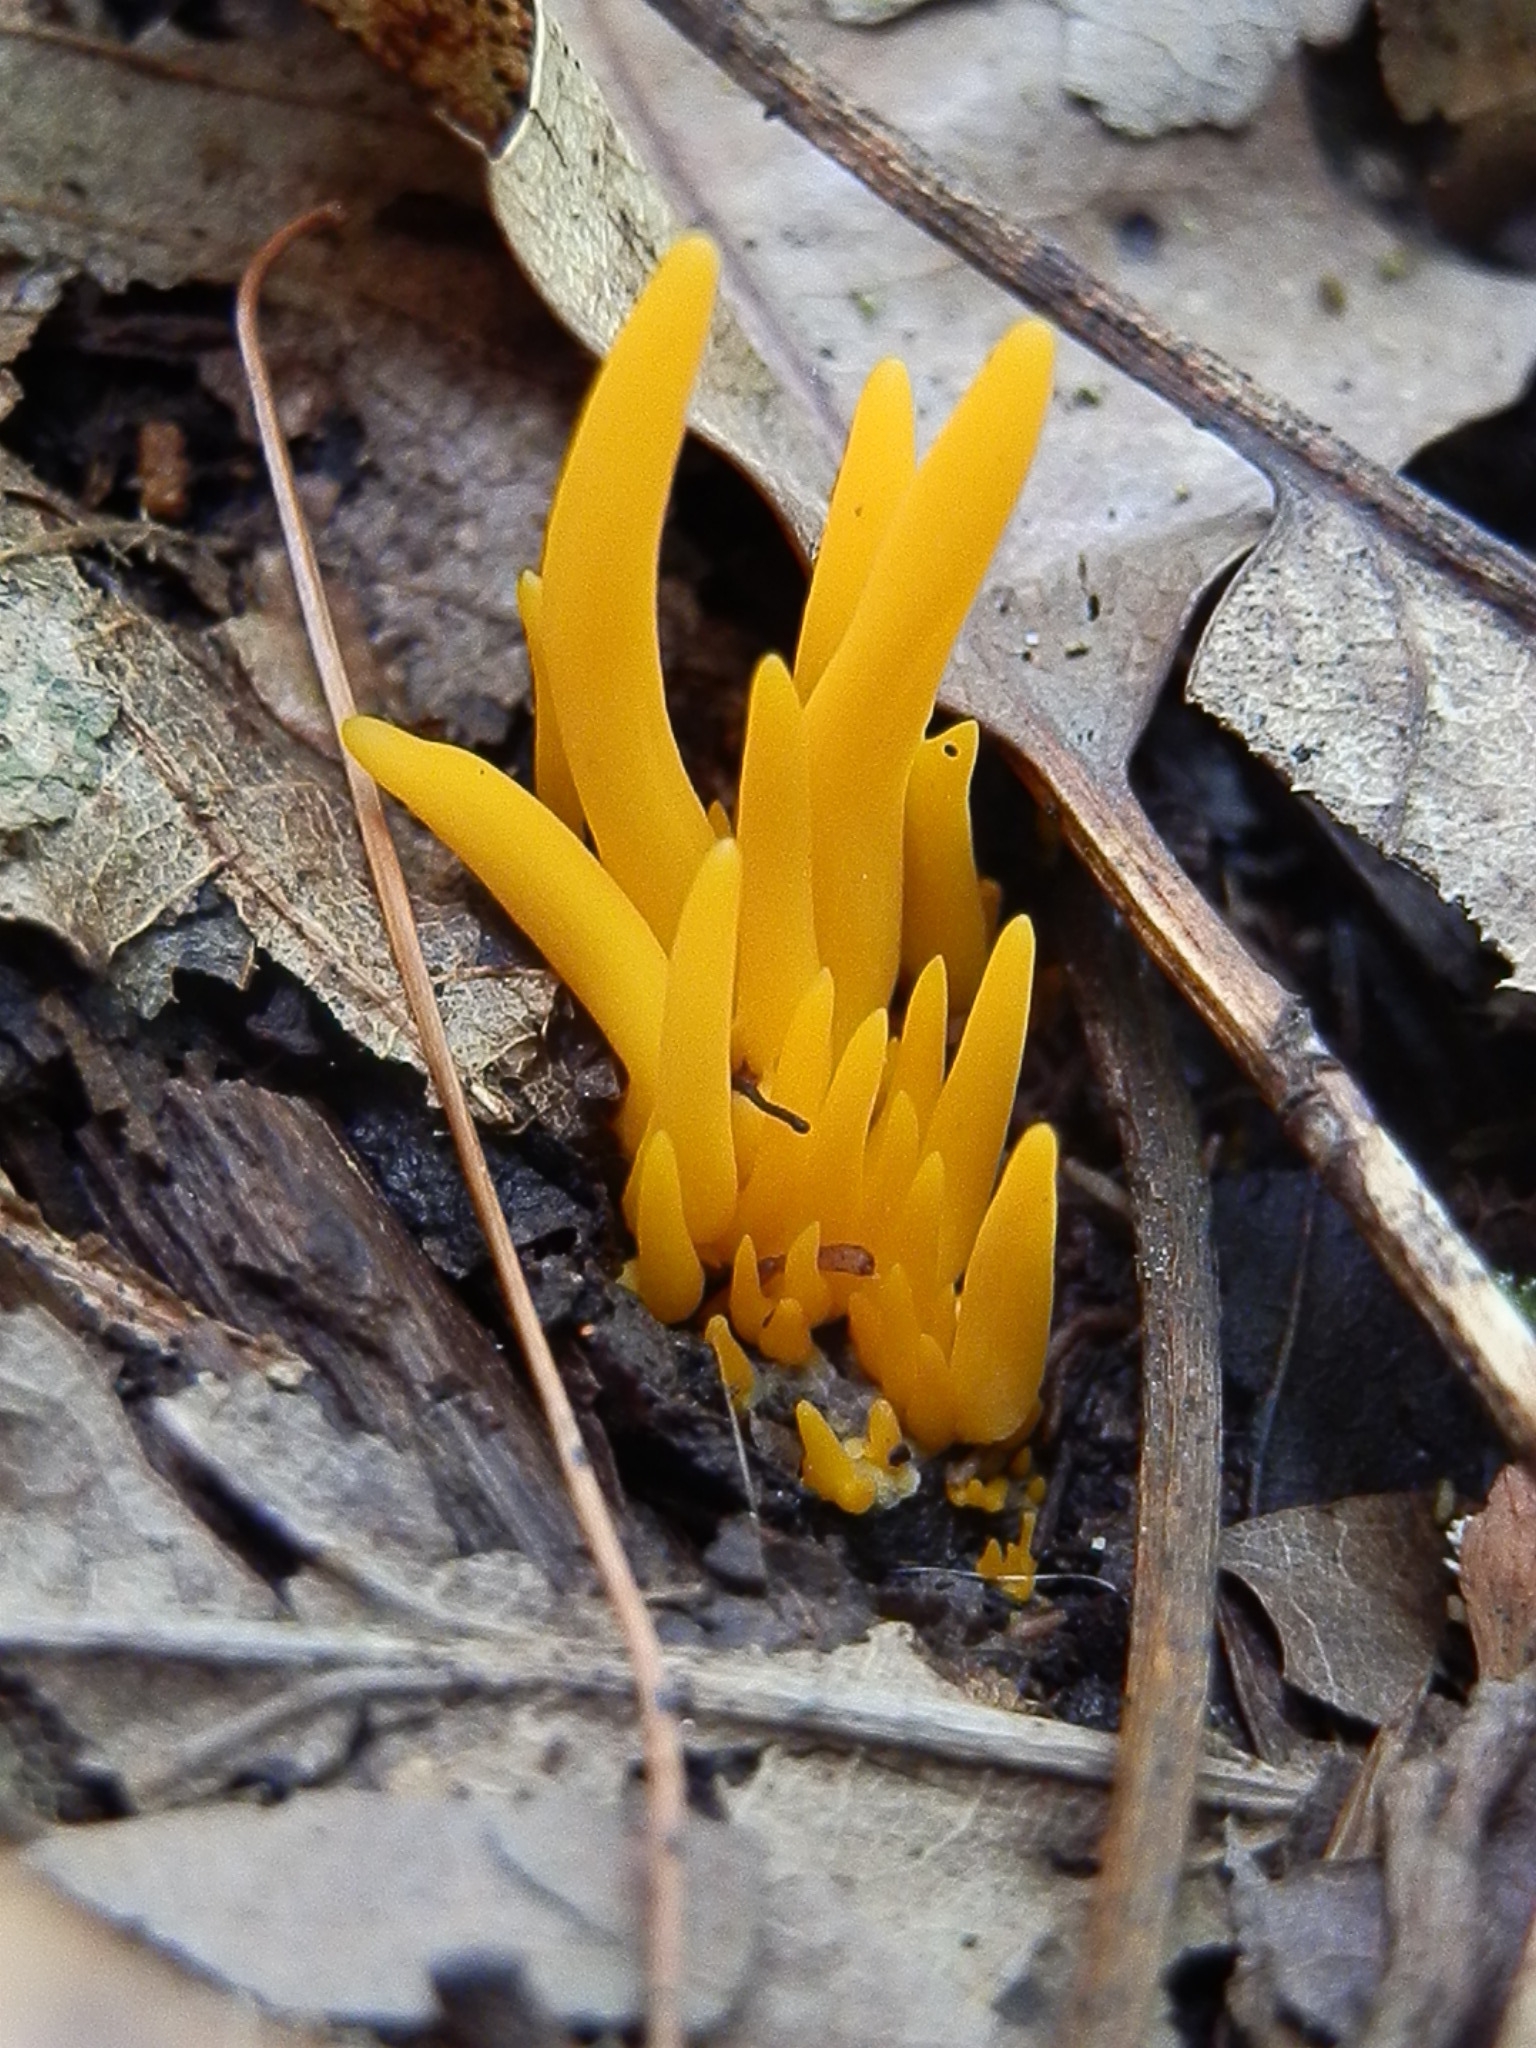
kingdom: Fungi
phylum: Basidiomycota
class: Agaricomycetes
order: Agaricales
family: Clavariaceae
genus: Clavulinopsis
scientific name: Clavulinopsis laeticolor
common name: Handsome club
